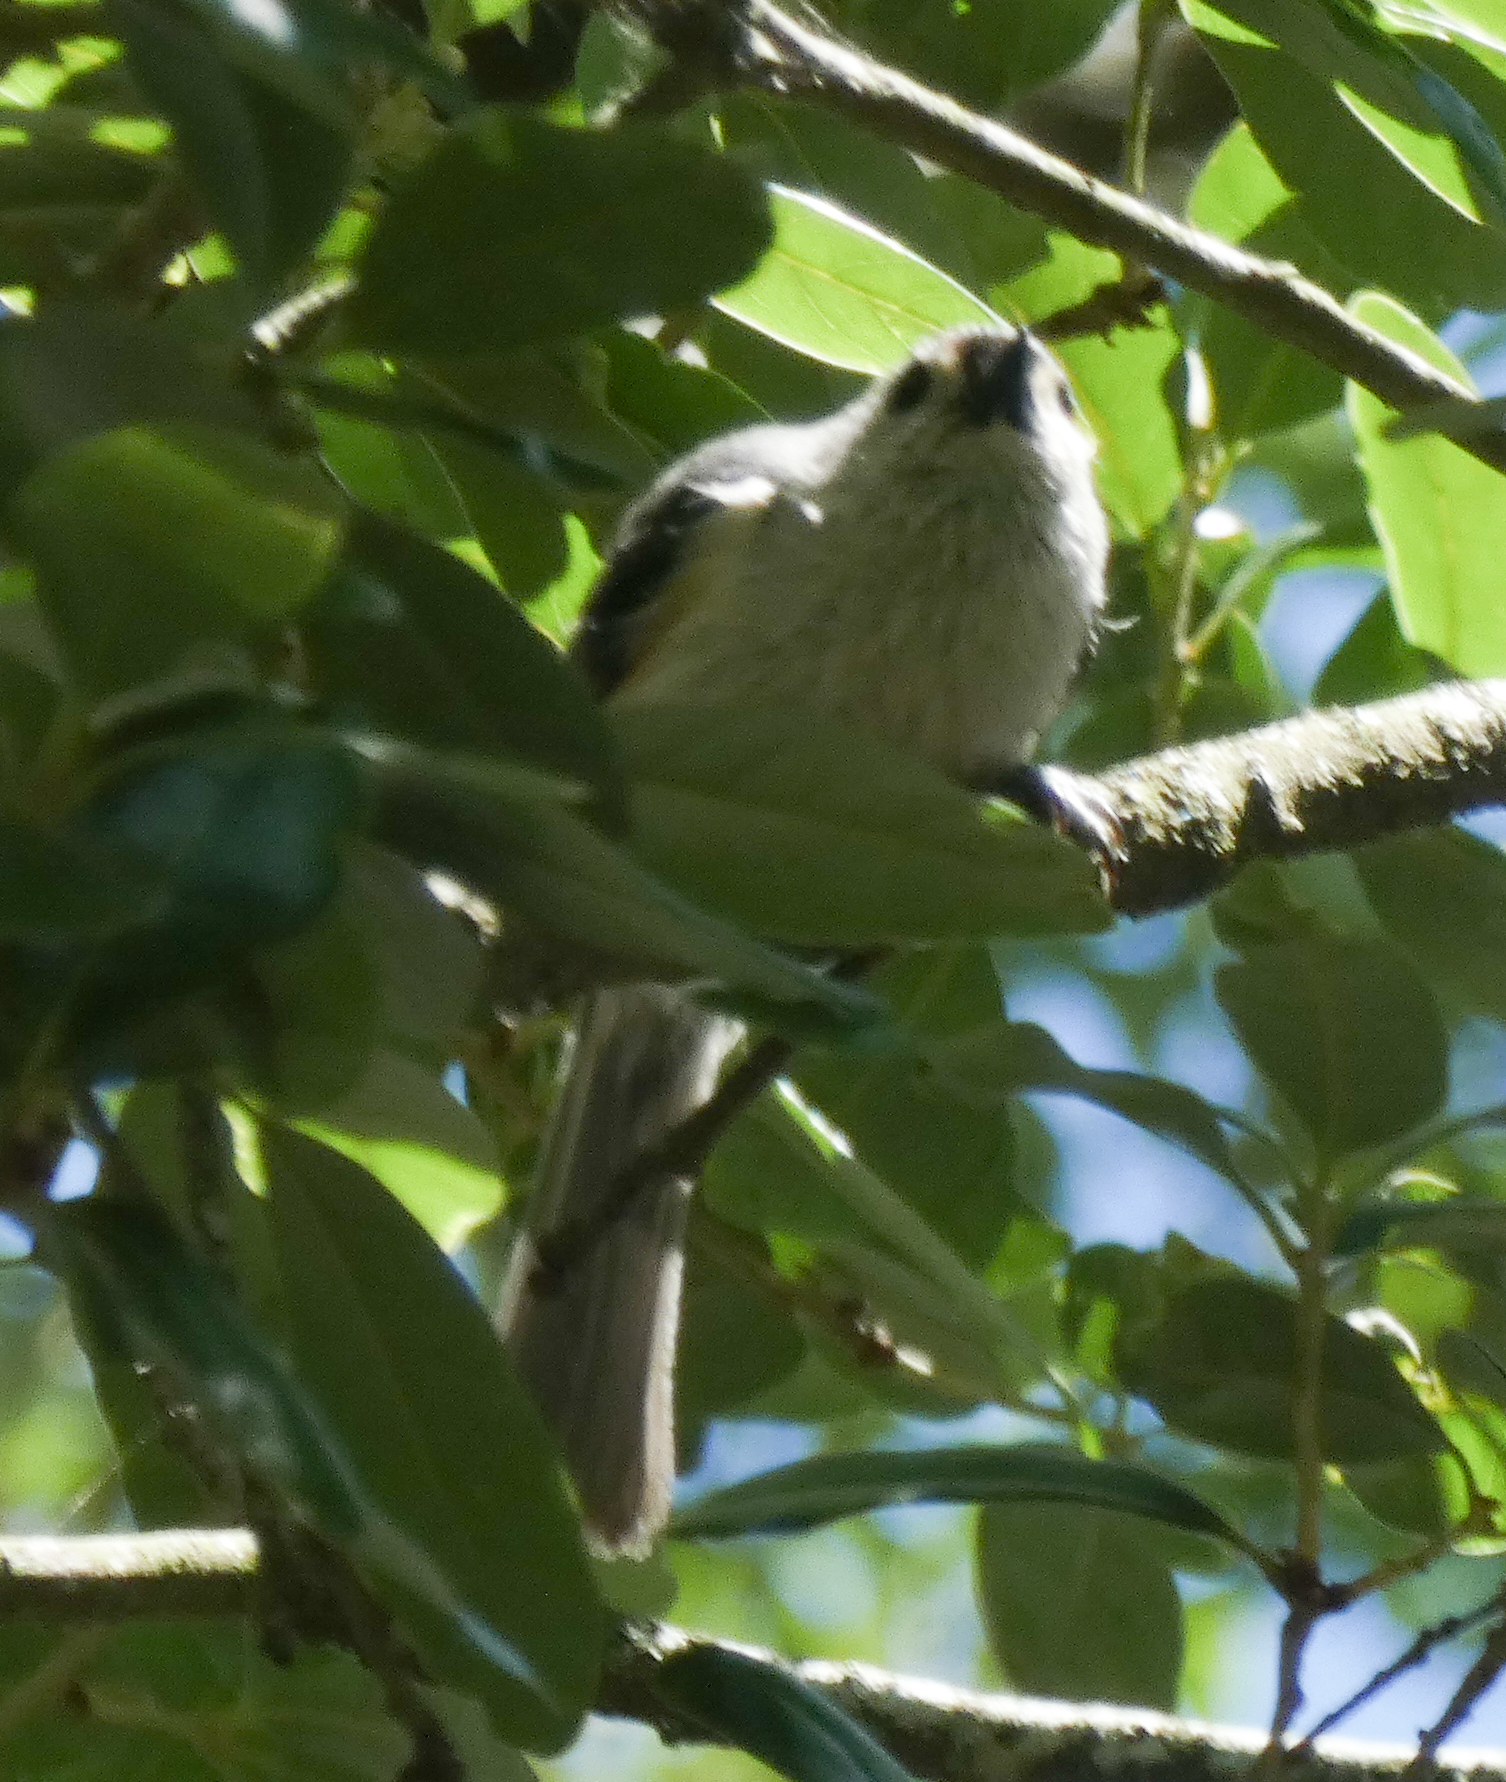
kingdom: Animalia
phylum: Chordata
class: Aves
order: Passeriformes
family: Paridae
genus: Baeolophus
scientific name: Baeolophus bicolor
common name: Tufted titmouse
